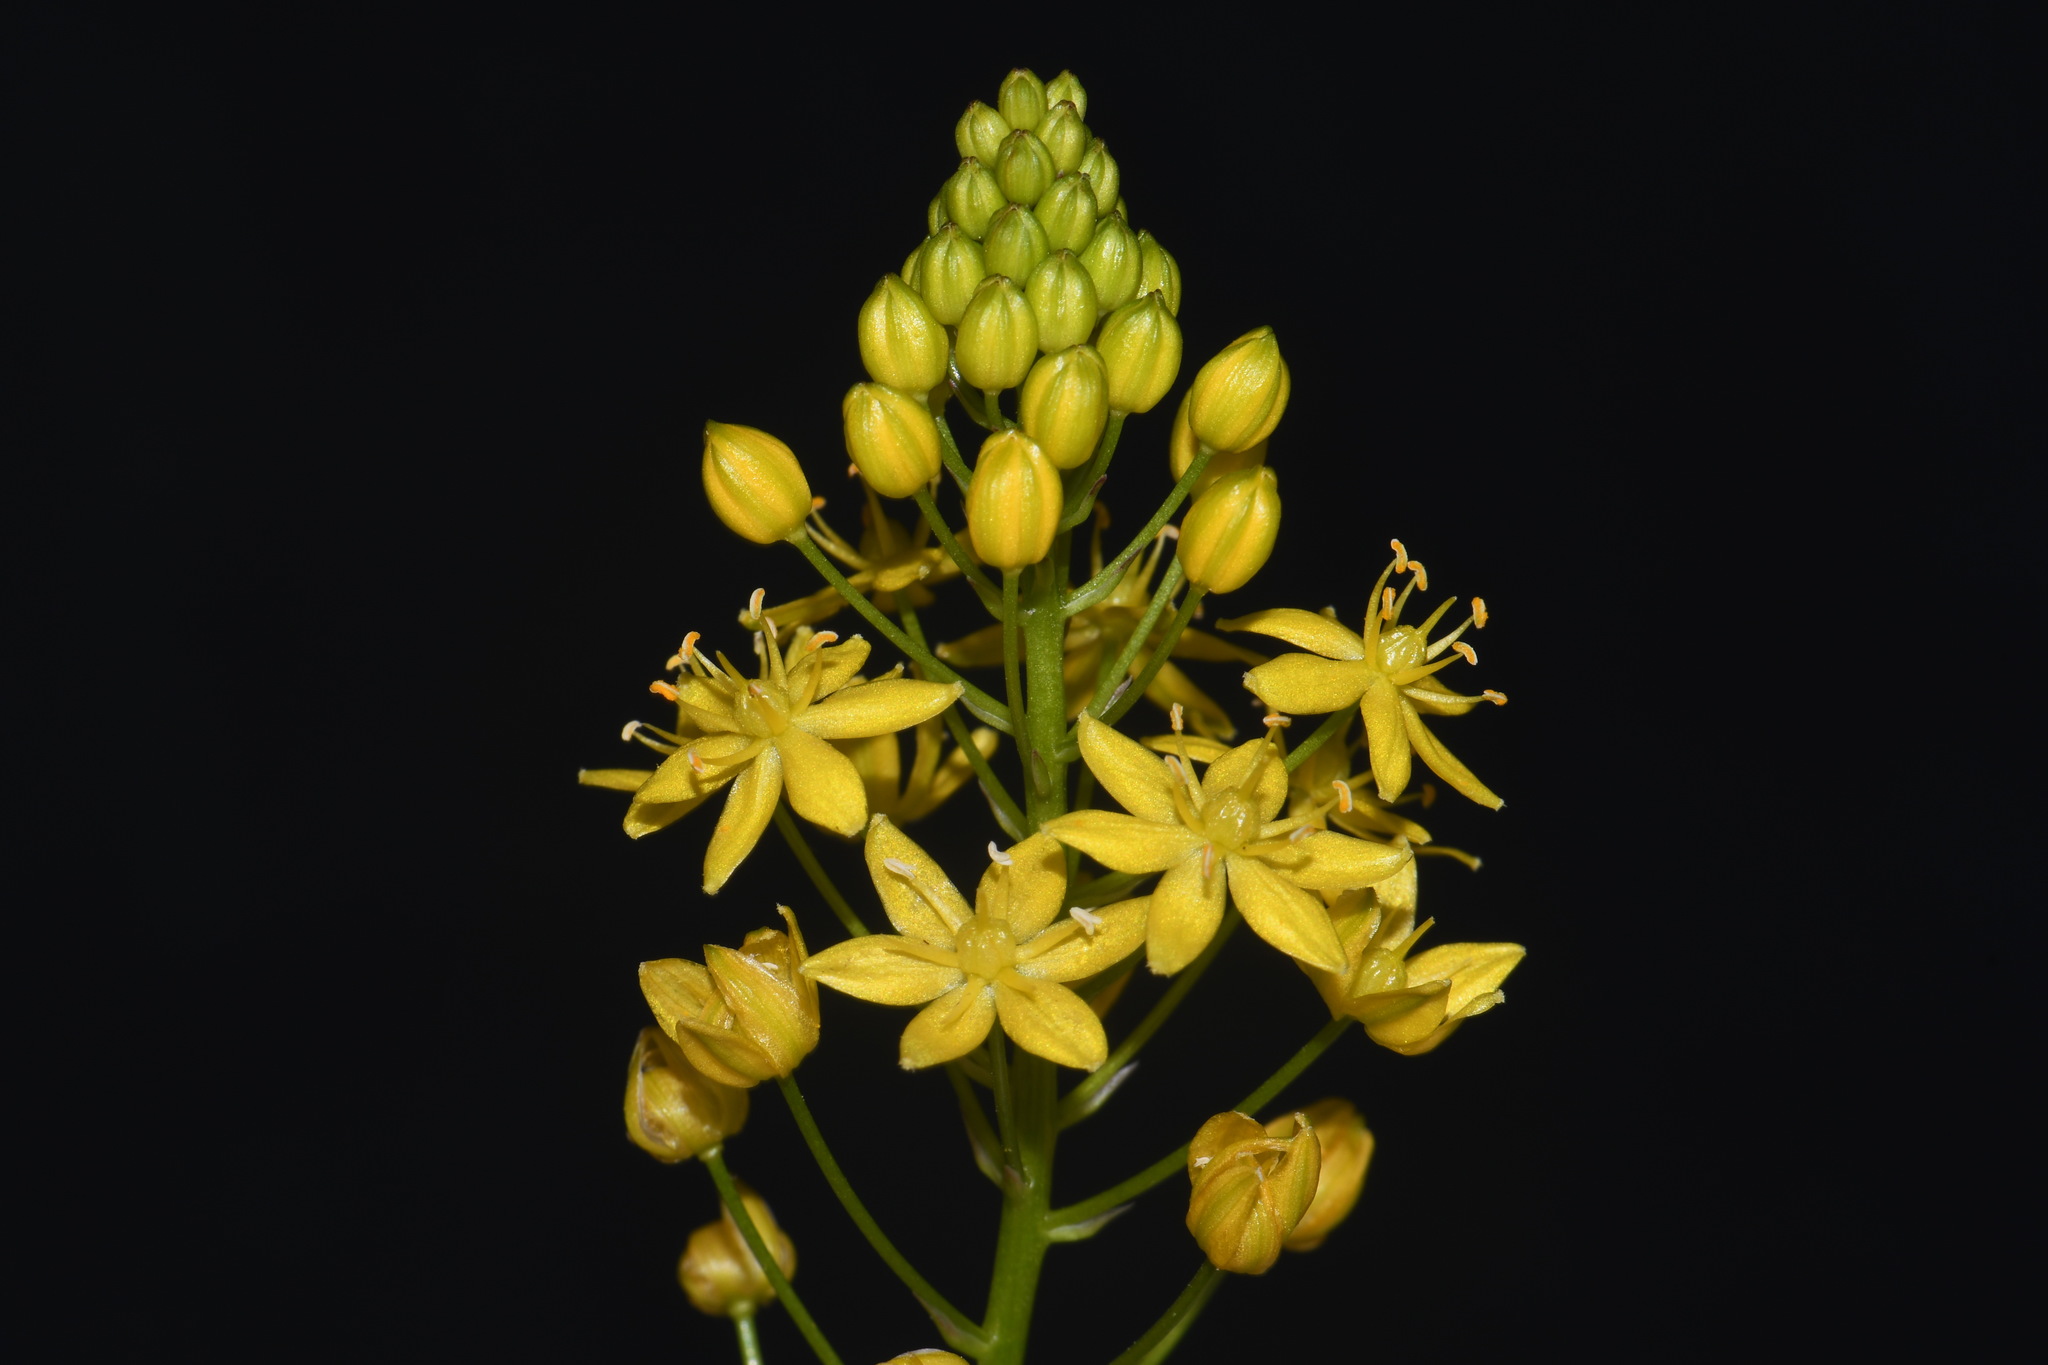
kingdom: Plantae
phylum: Tracheophyta
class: Liliopsida
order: Asparagales
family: Asparagaceae
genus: Schoenolirion
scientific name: Schoenolirion croceum
